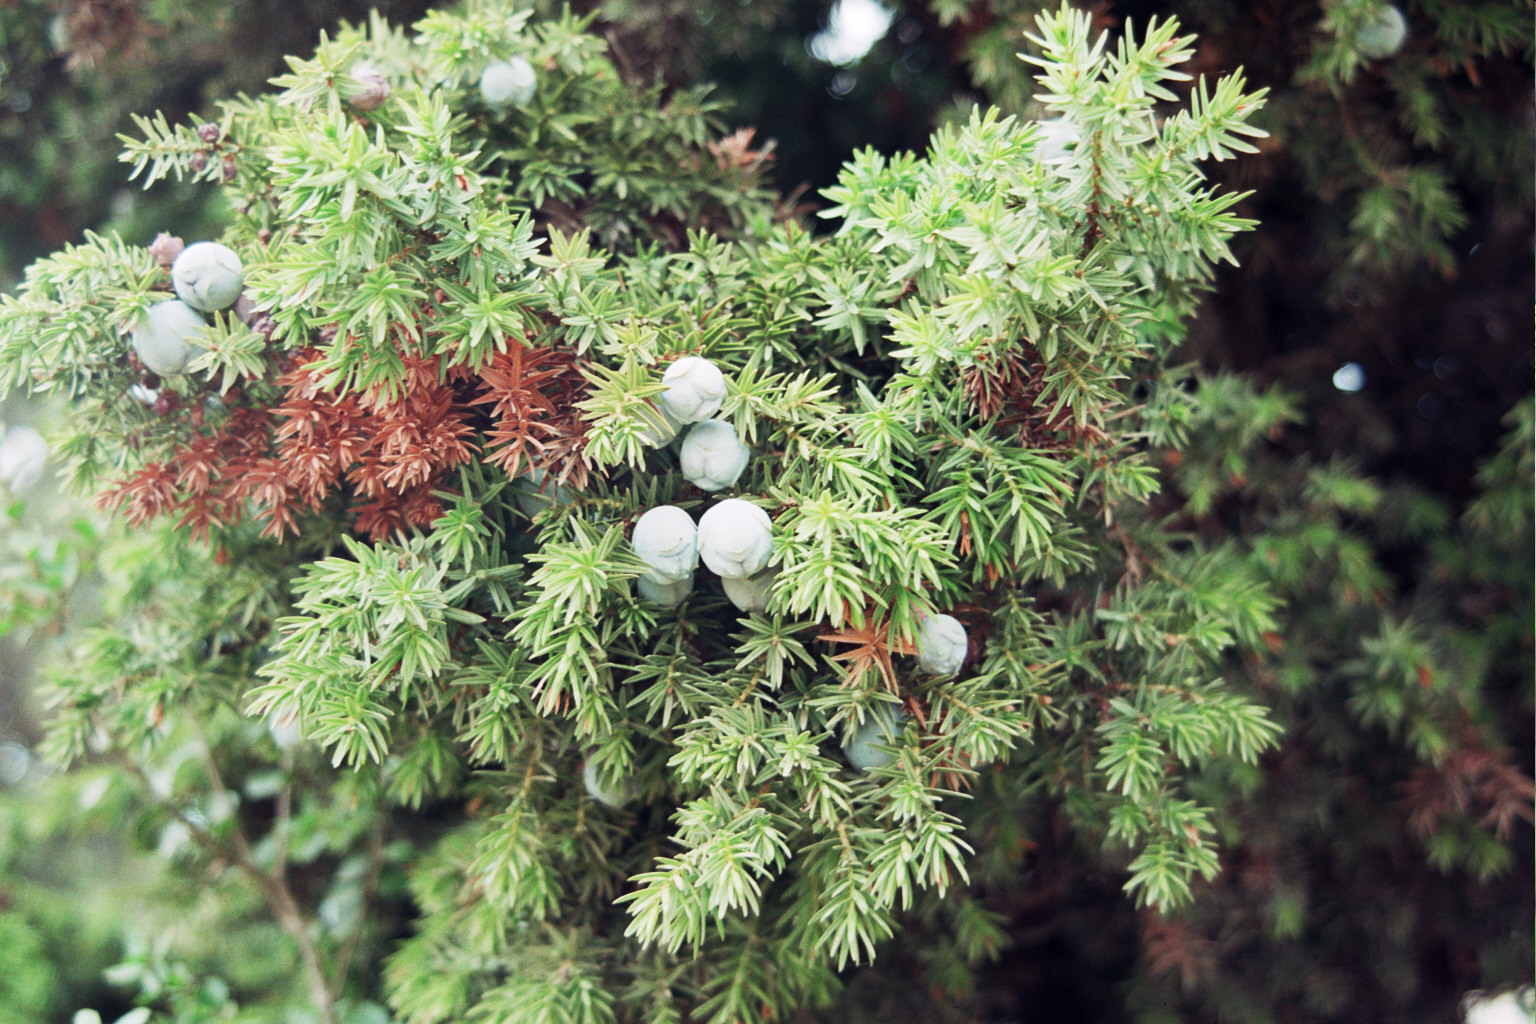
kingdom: Plantae
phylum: Tracheophyta
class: Pinopsida
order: Pinales
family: Cupressaceae
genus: Juniperus
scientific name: Juniperus drupacea
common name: Syrian juniper
